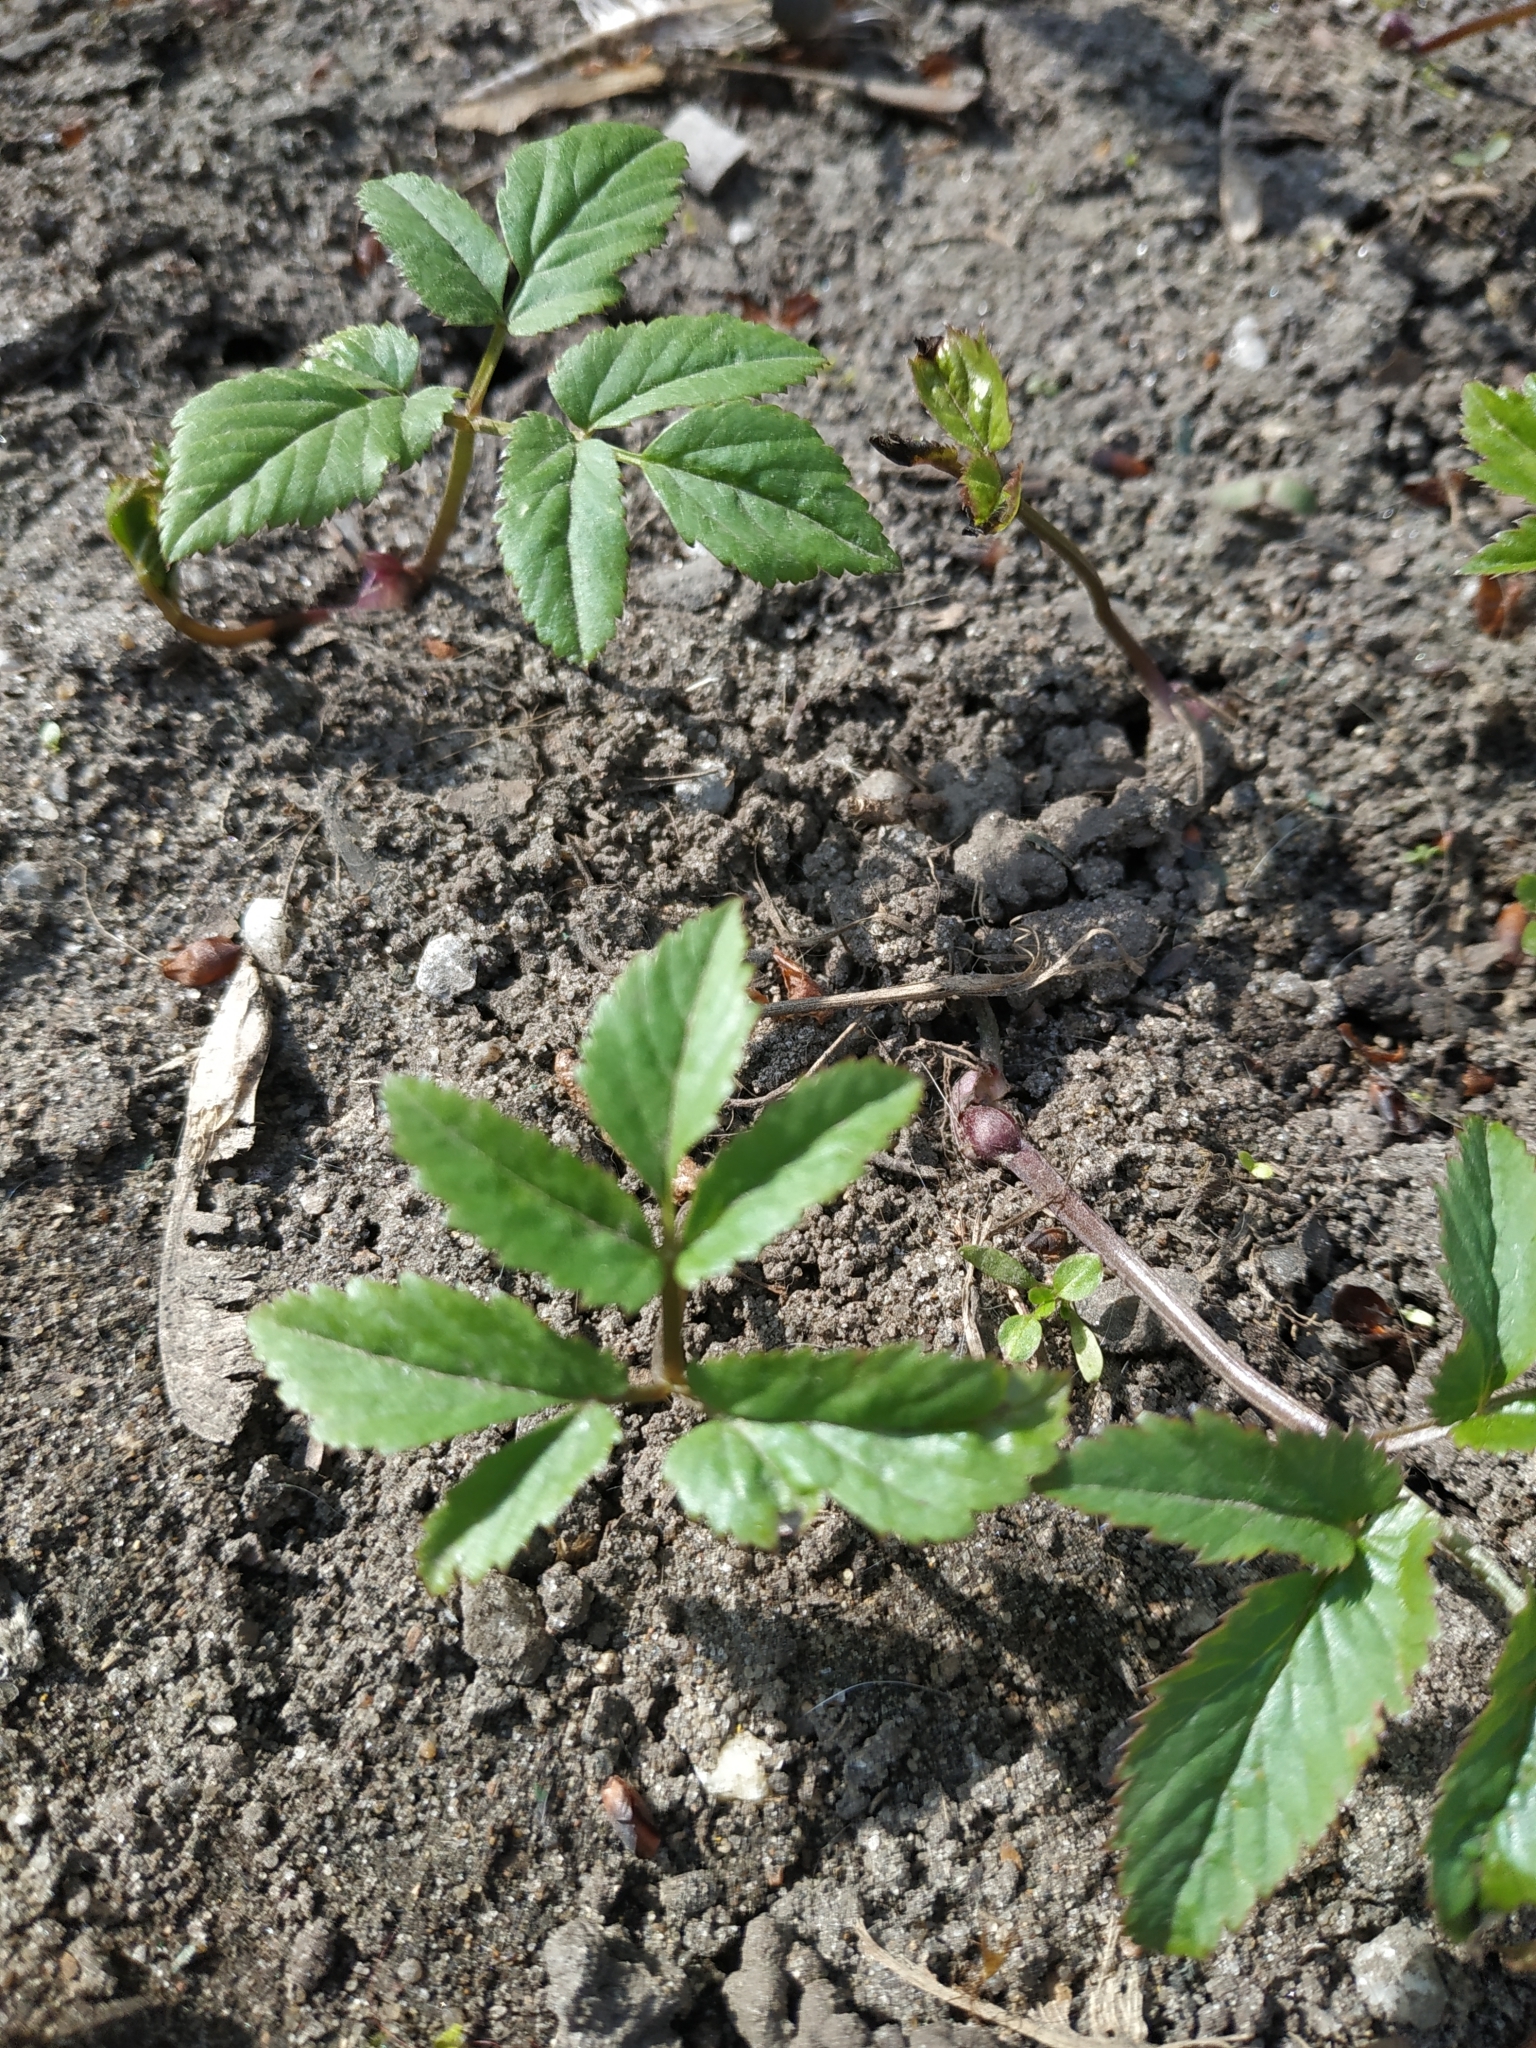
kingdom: Plantae
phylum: Tracheophyta
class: Magnoliopsida
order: Apiales
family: Apiaceae
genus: Aegopodium
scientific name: Aegopodium podagraria
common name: Ground-elder
